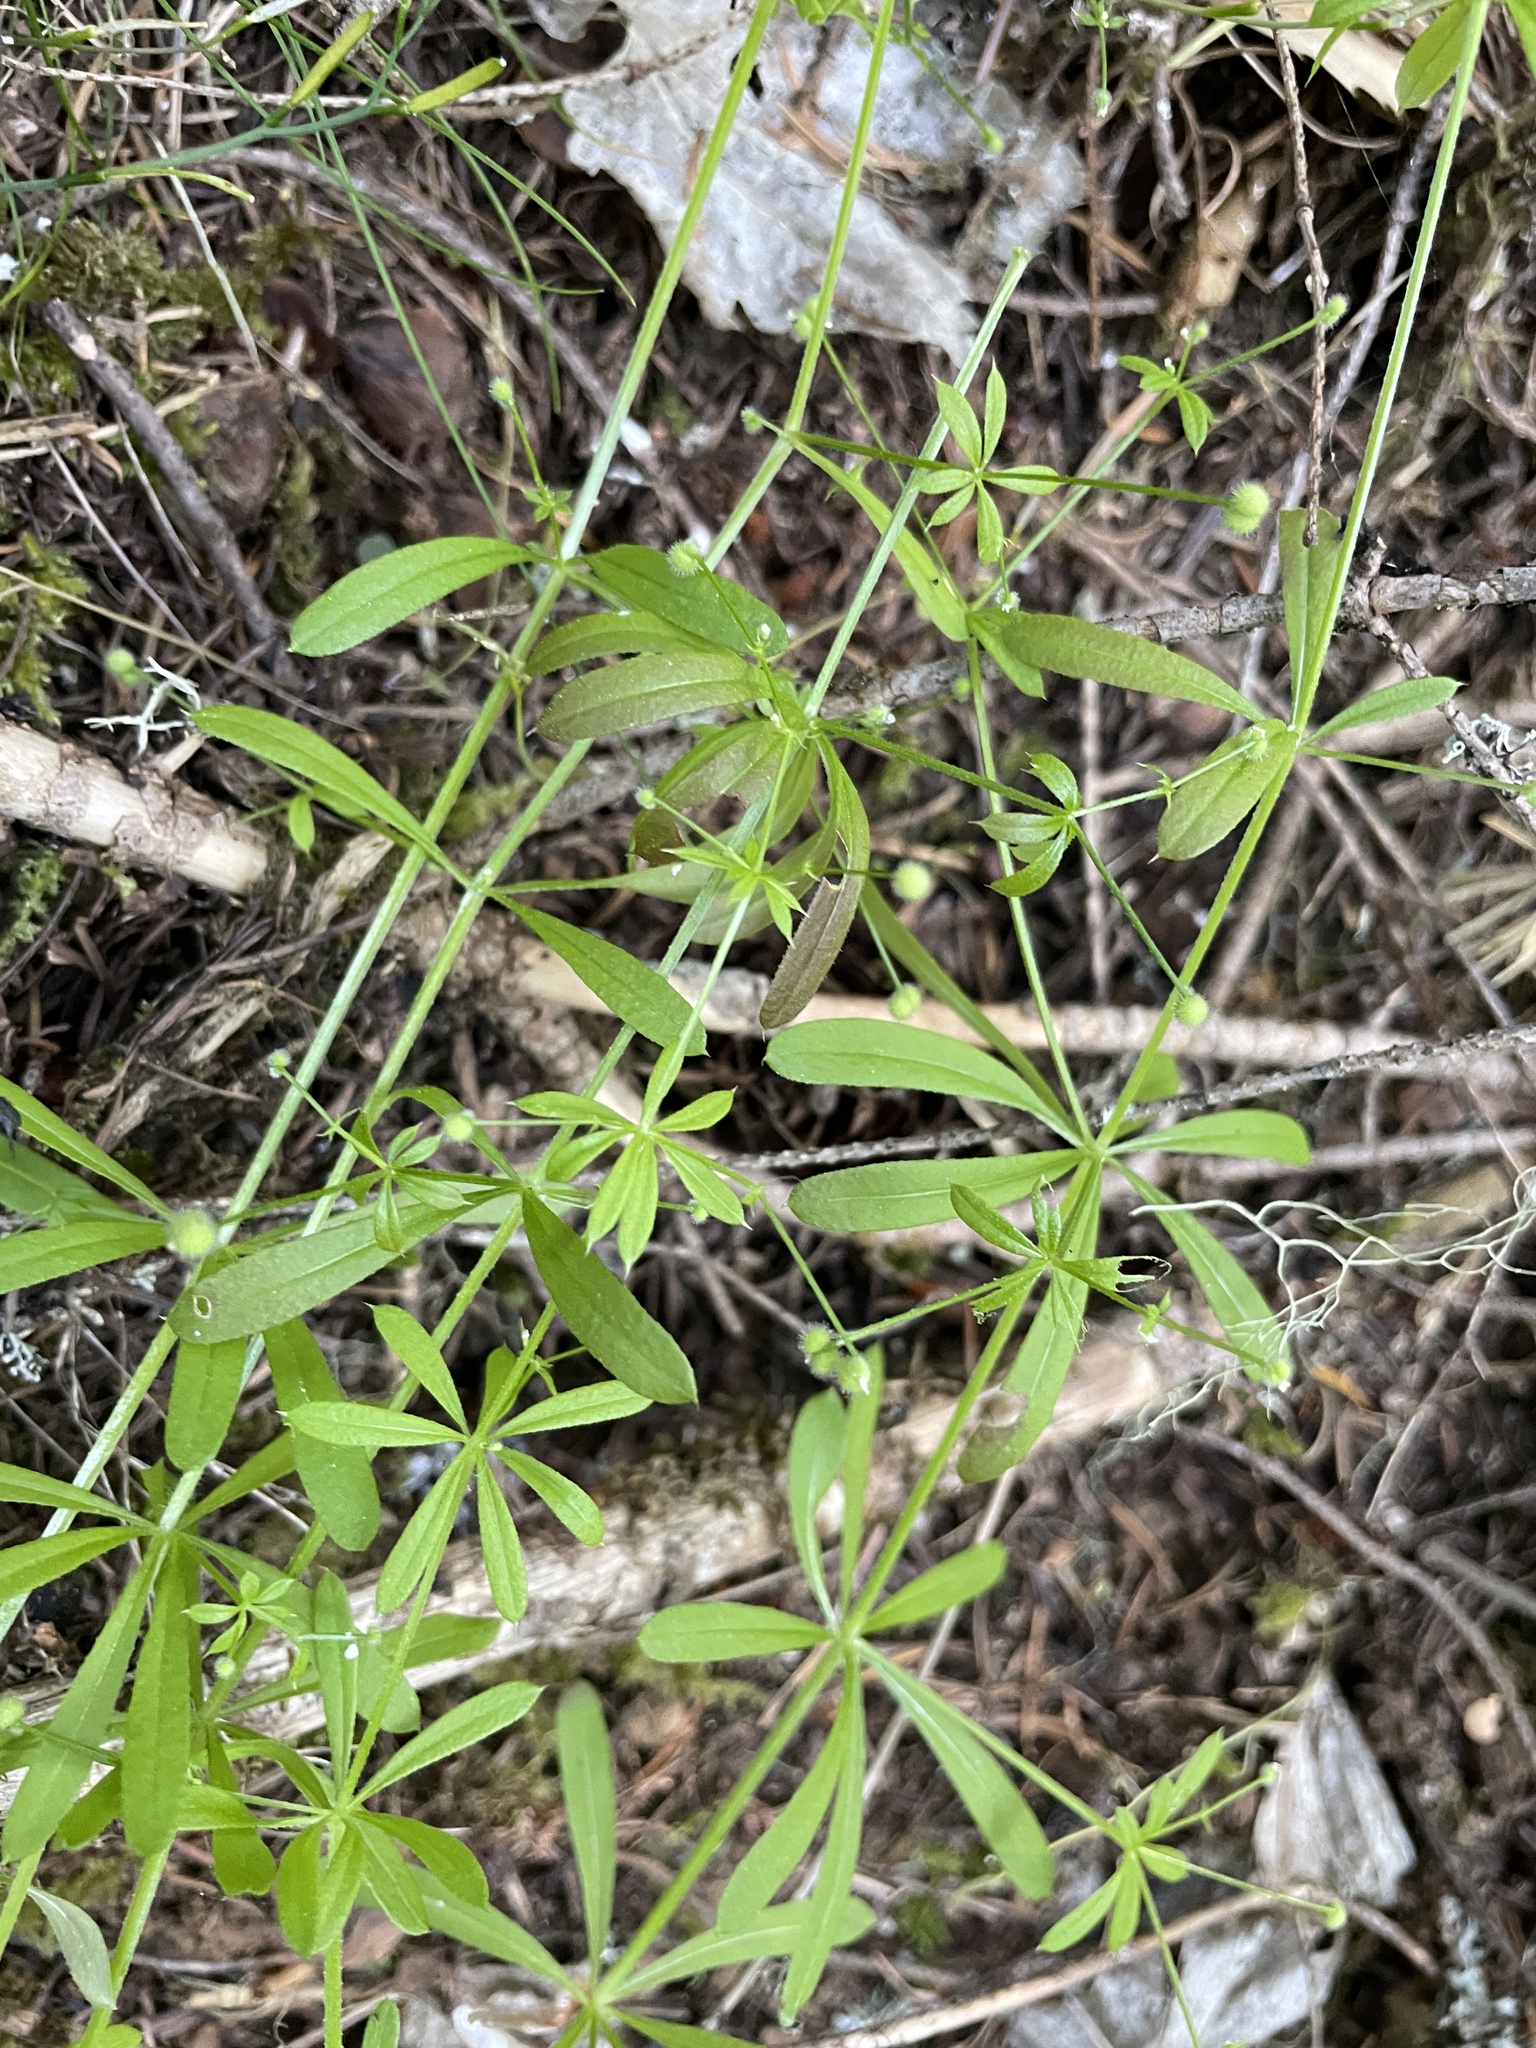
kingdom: Plantae
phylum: Tracheophyta
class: Magnoliopsida
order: Gentianales
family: Rubiaceae
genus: Galium
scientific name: Galium aparine
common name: Cleavers
